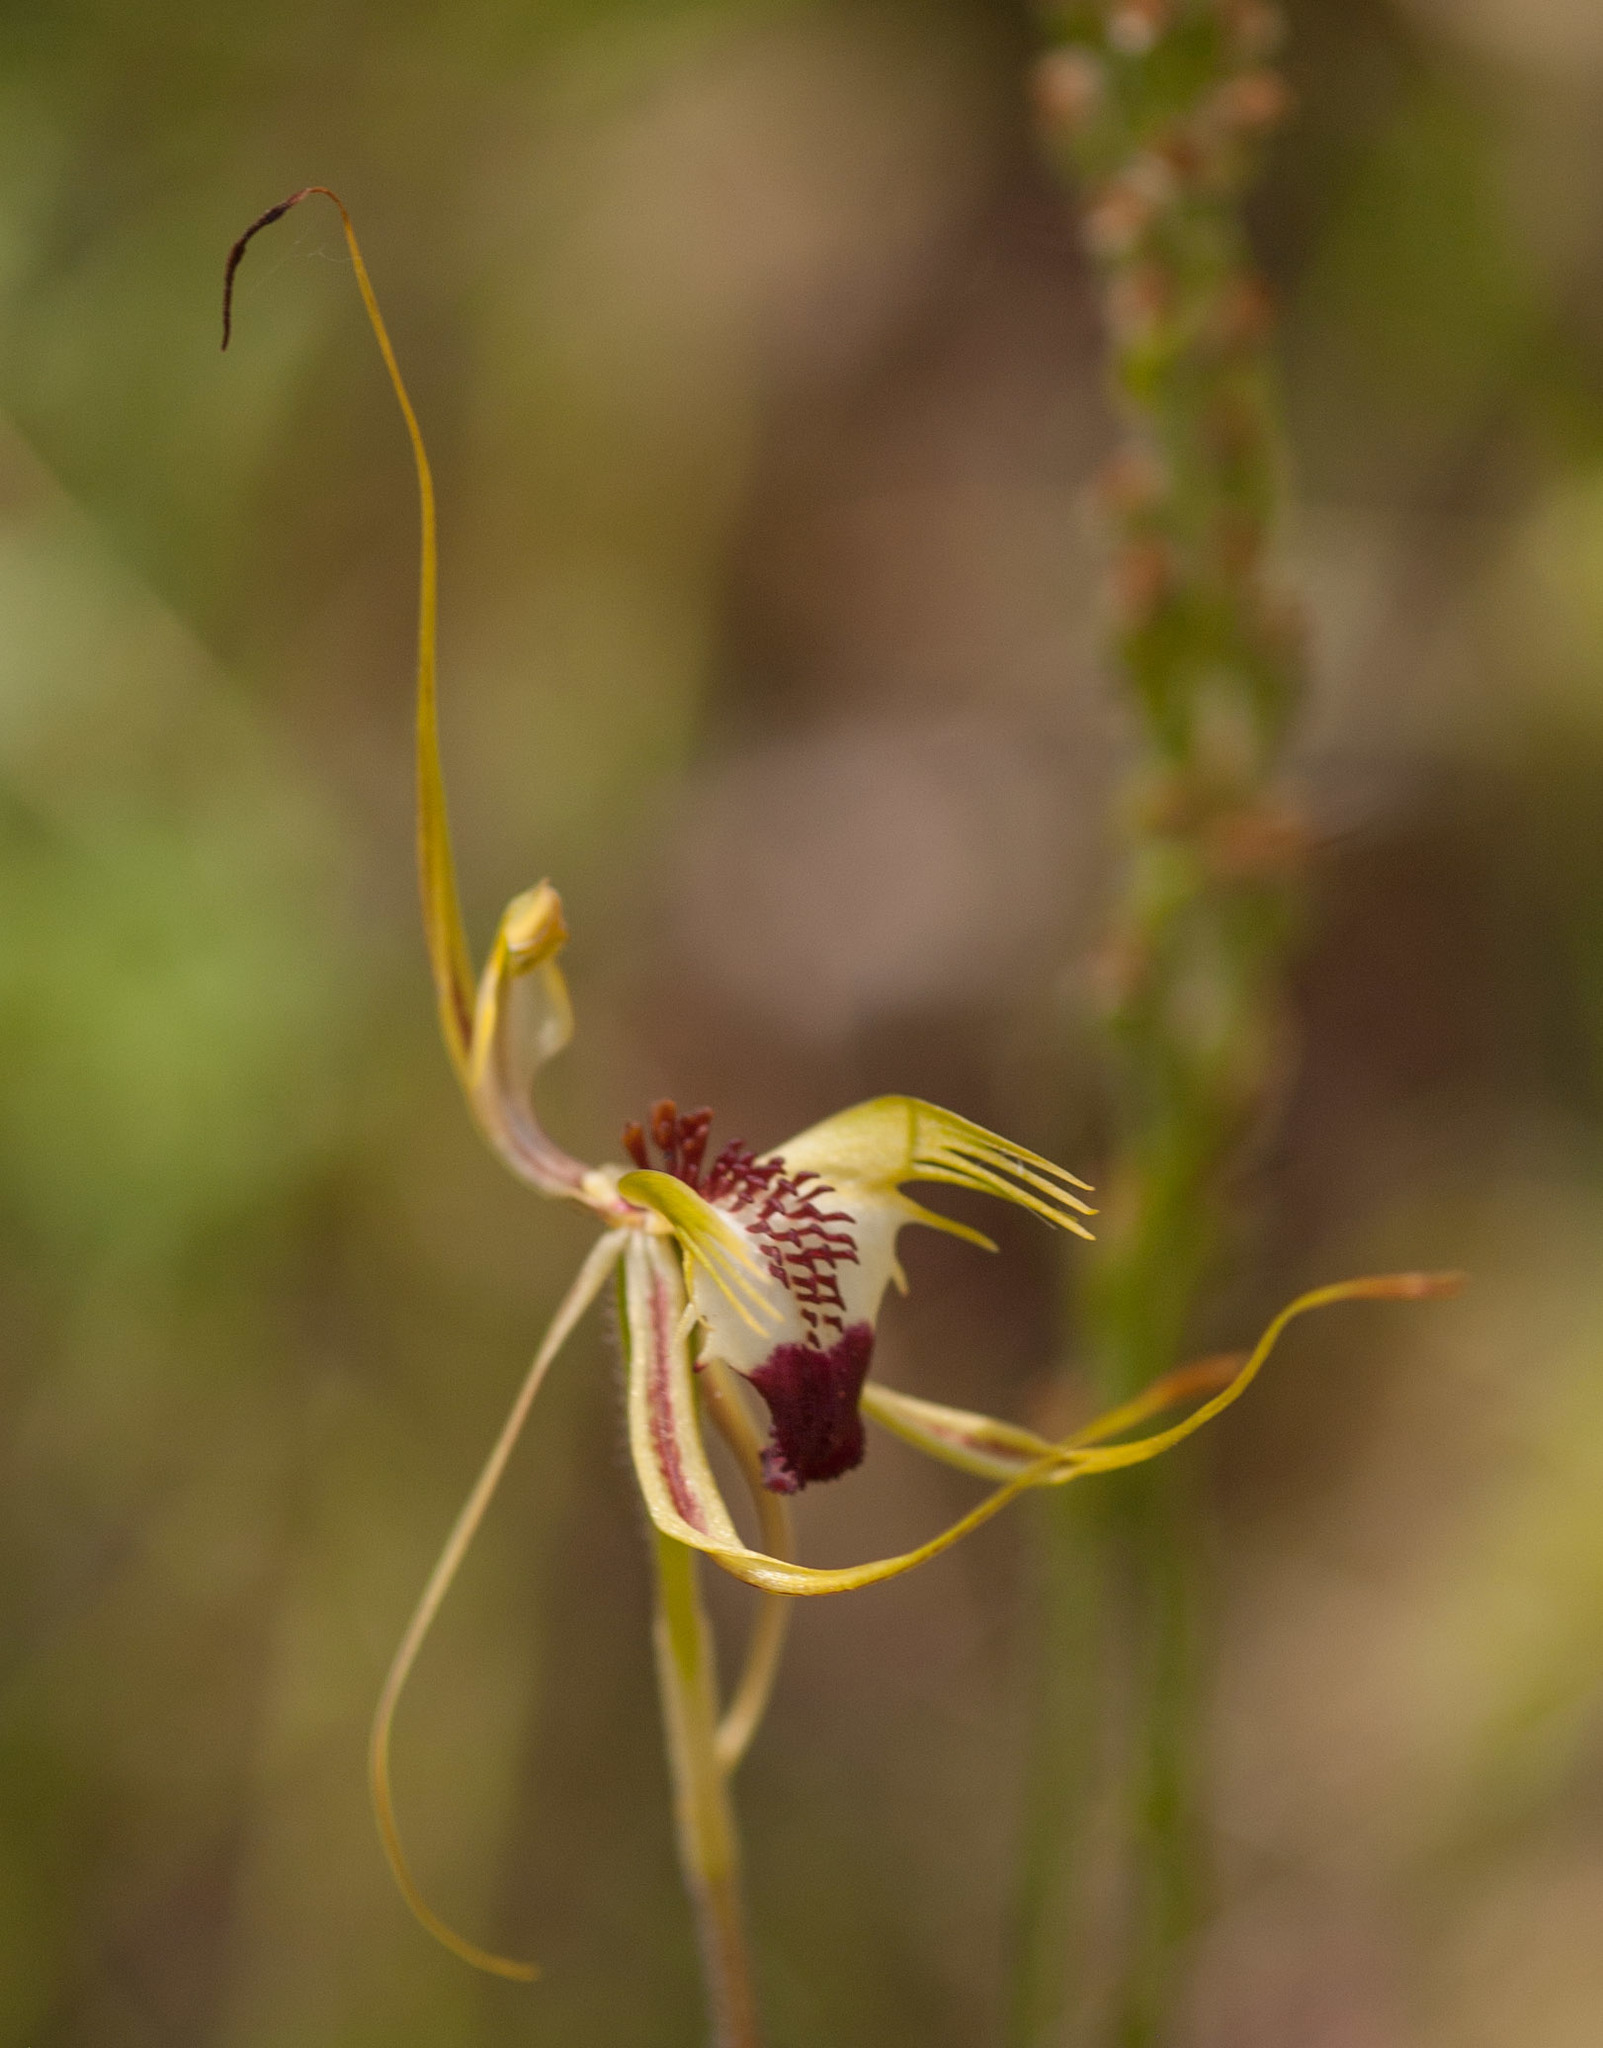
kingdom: Plantae
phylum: Tracheophyta
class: Liliopsida
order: Asparagales
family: Orchidaceae
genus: Caladenia
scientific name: Caladenia tentaculata
